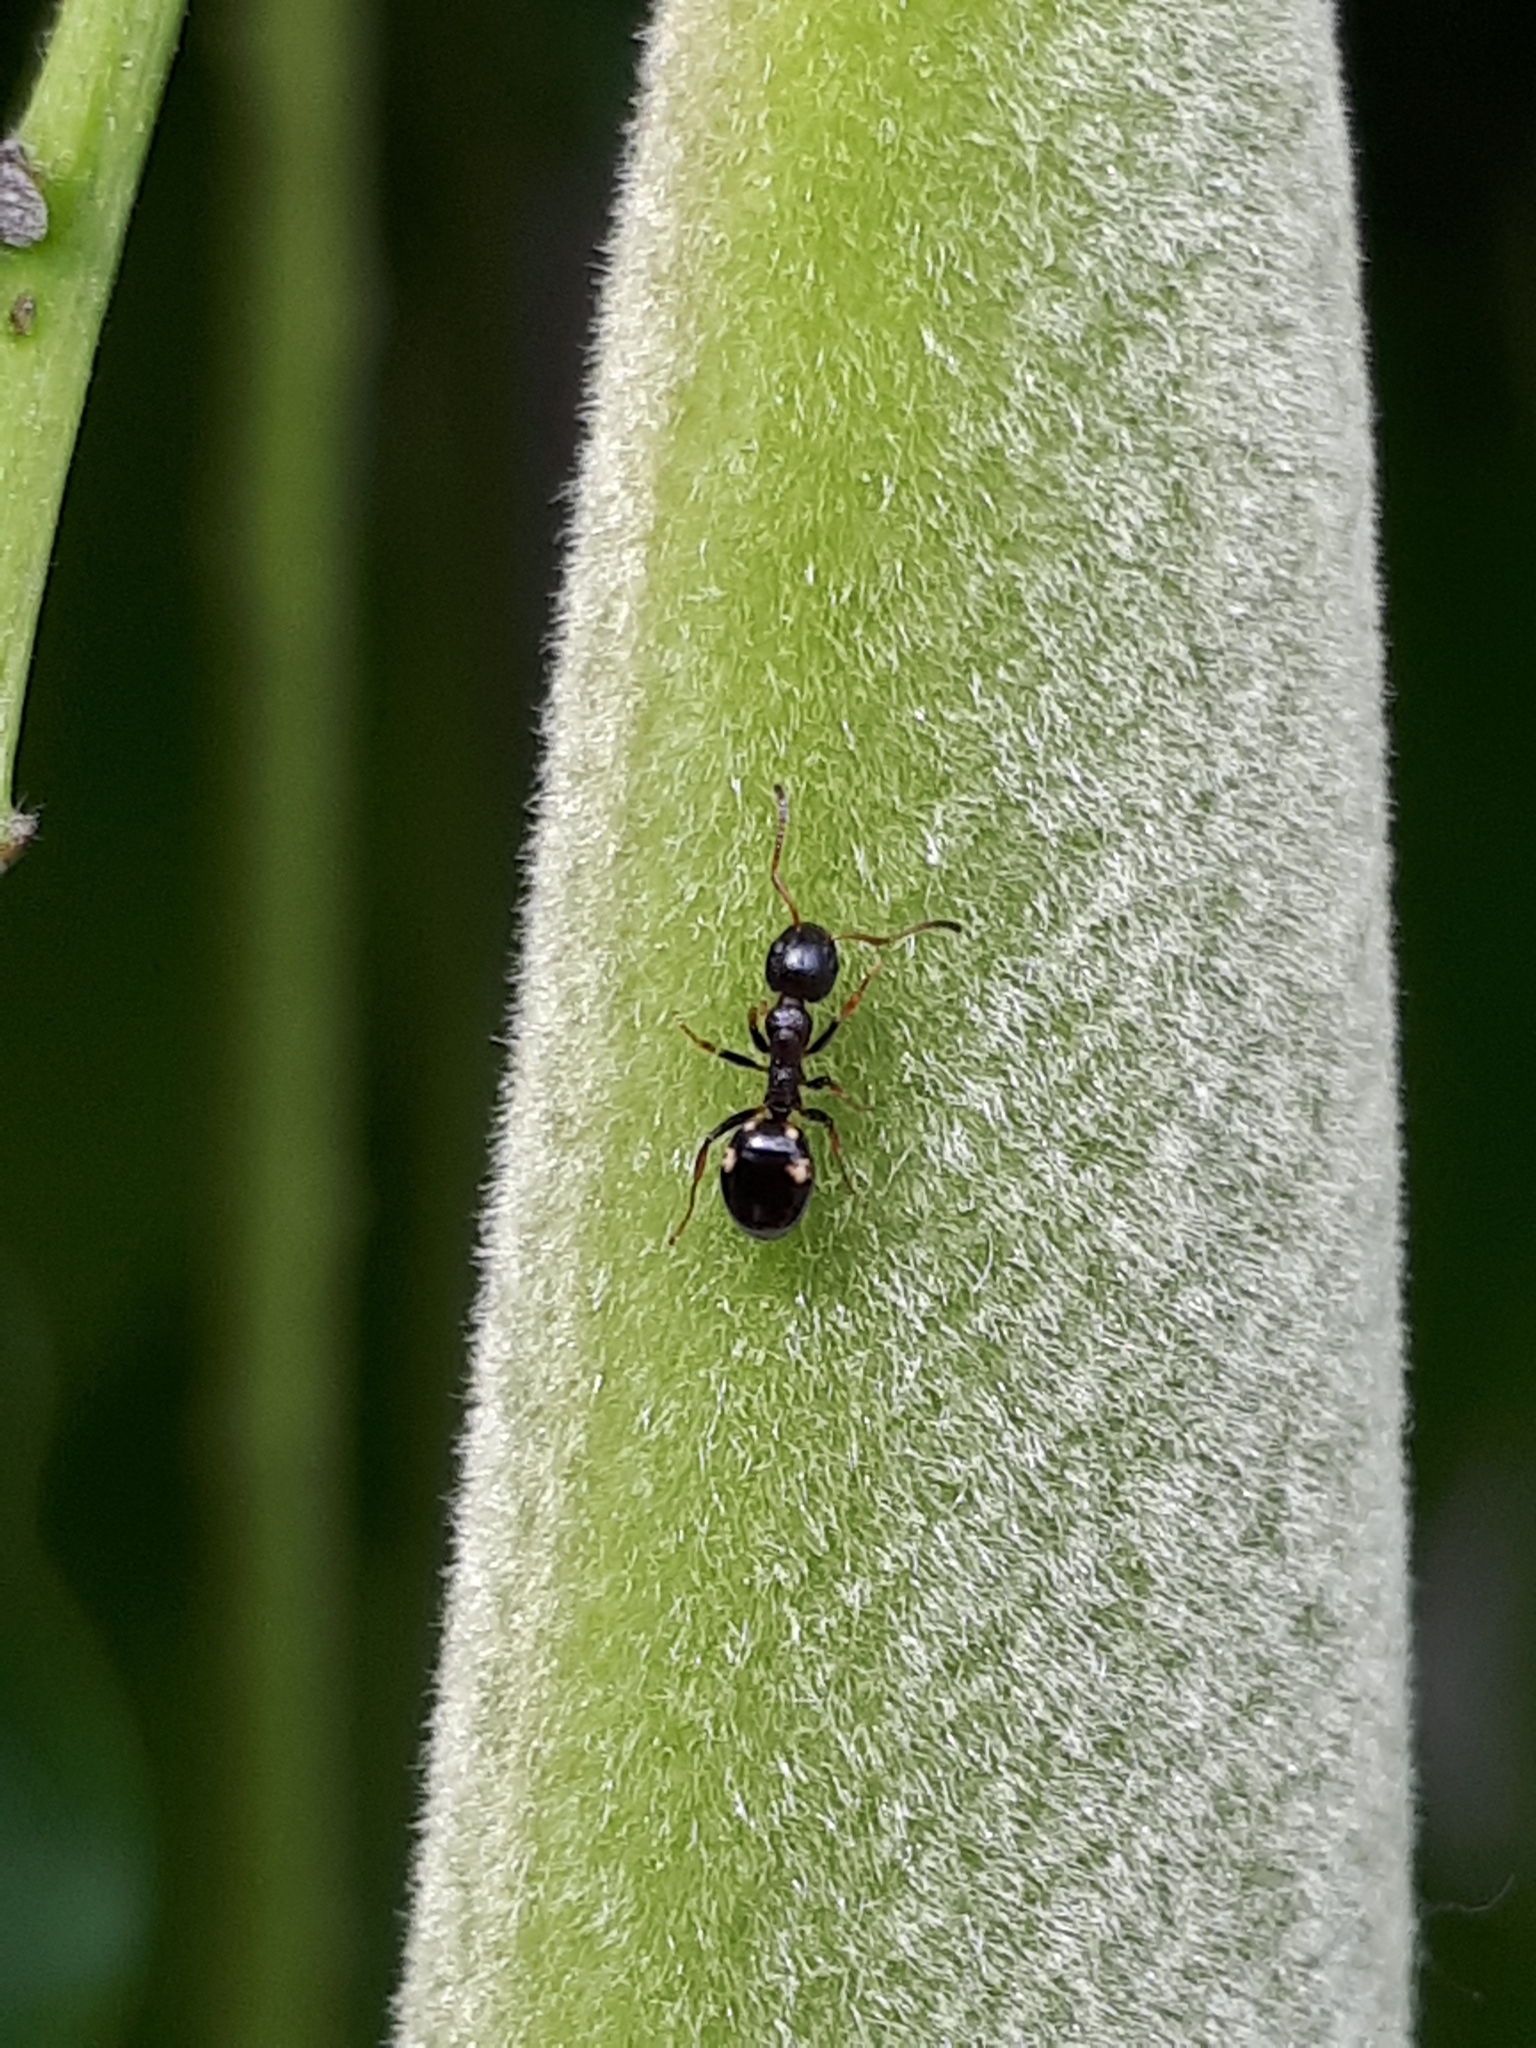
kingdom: Animalia
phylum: Arthropoda
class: Insecta
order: Hymenoptera
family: Formicidae
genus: Dolichoderus
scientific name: Dolichoderus quadripunctatus
